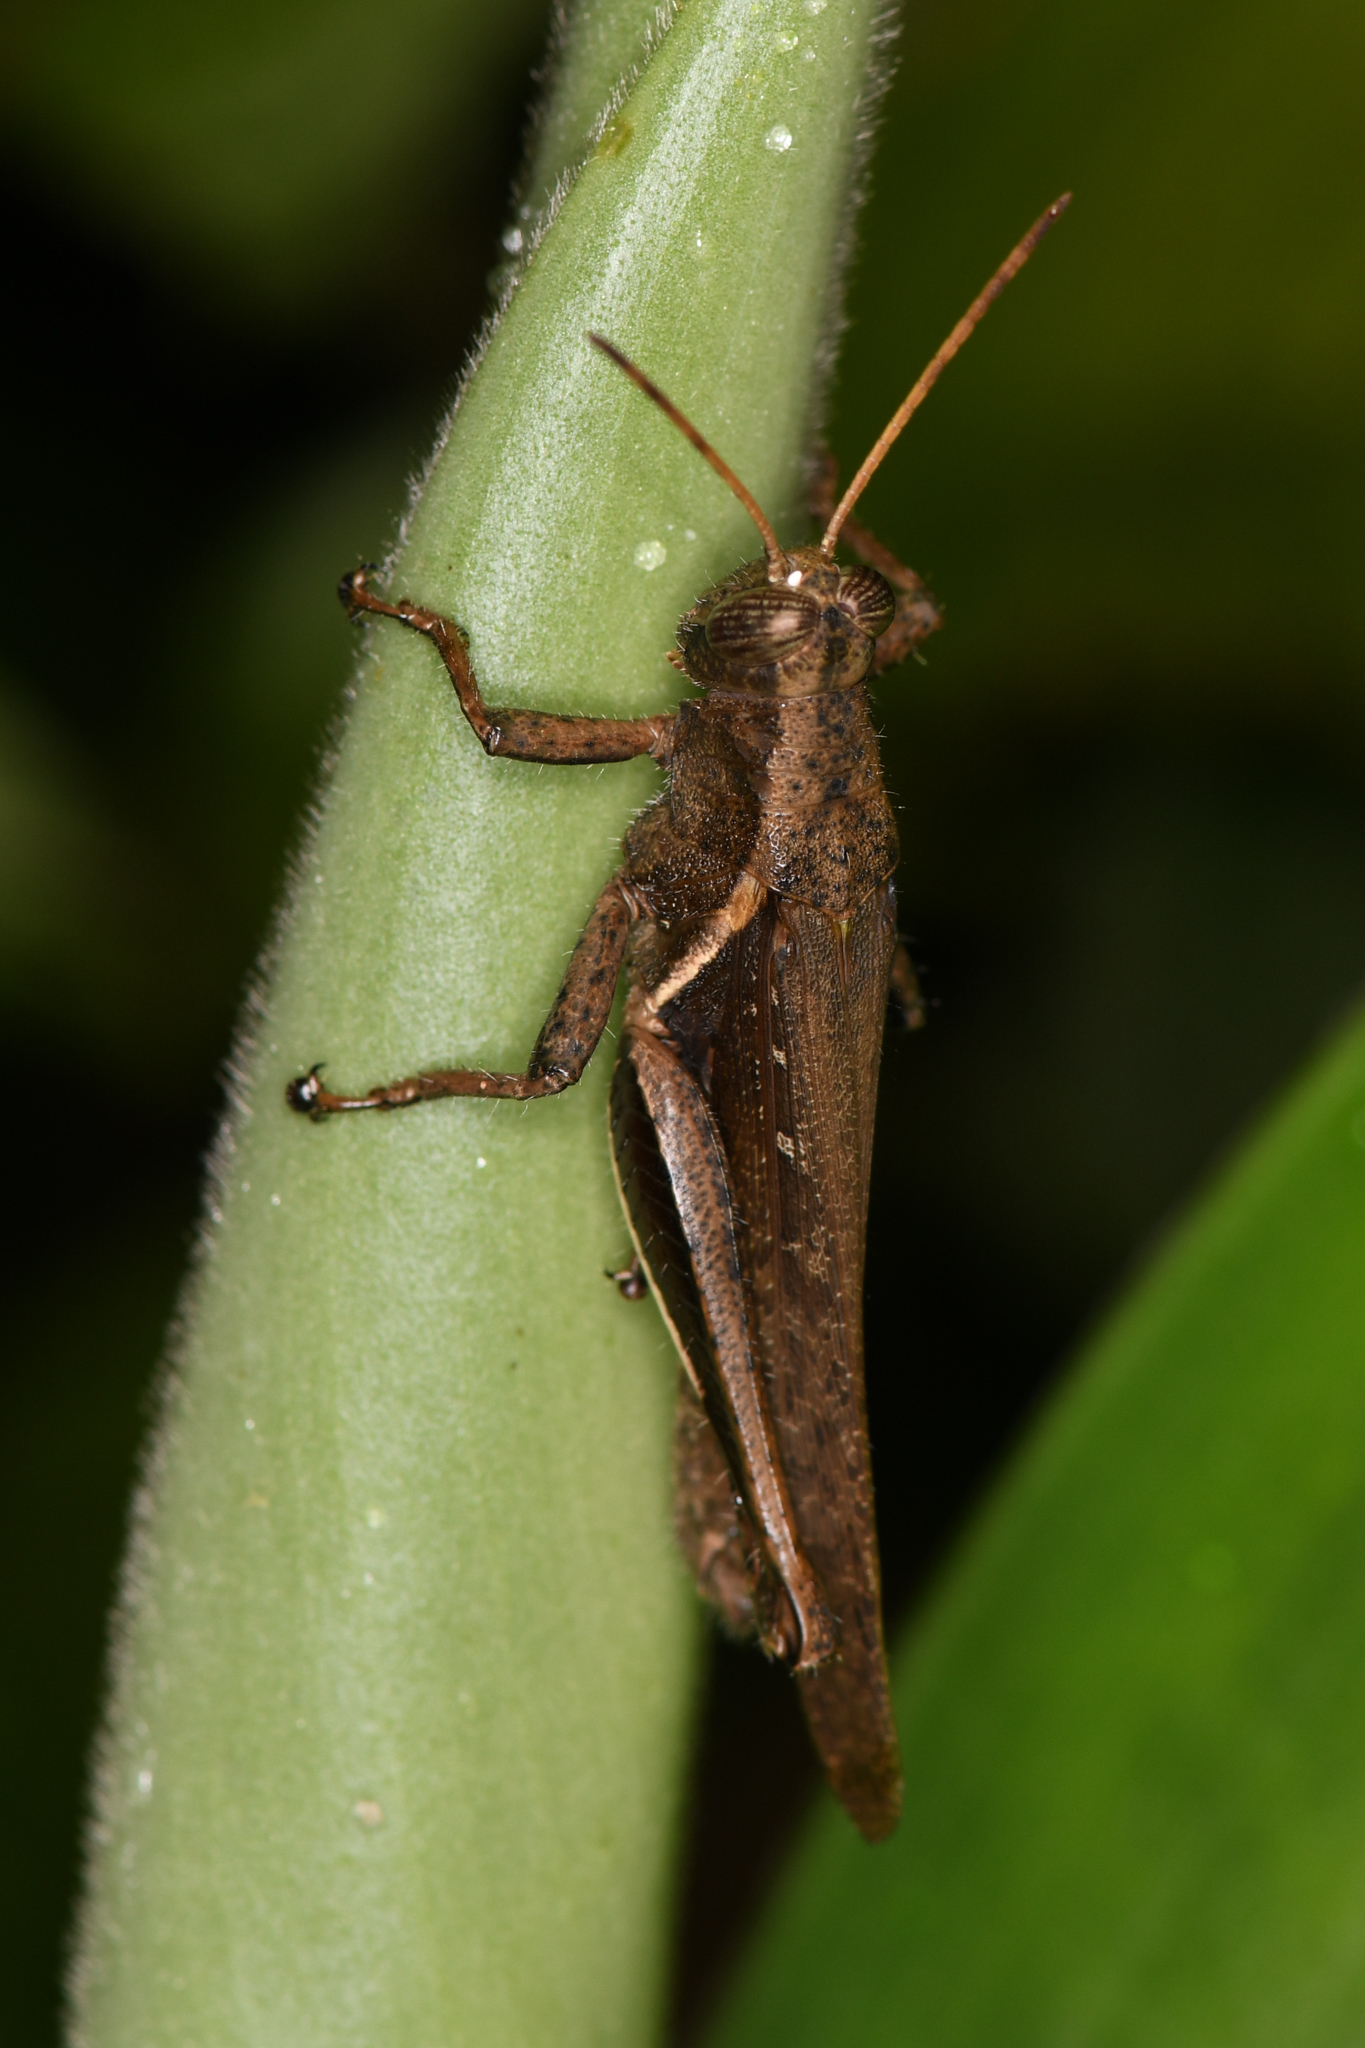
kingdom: Animalia
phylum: Arthropoda
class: Insecta
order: Orthoptera
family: Acrididae
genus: Abracris
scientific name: Abracris flavolineata
